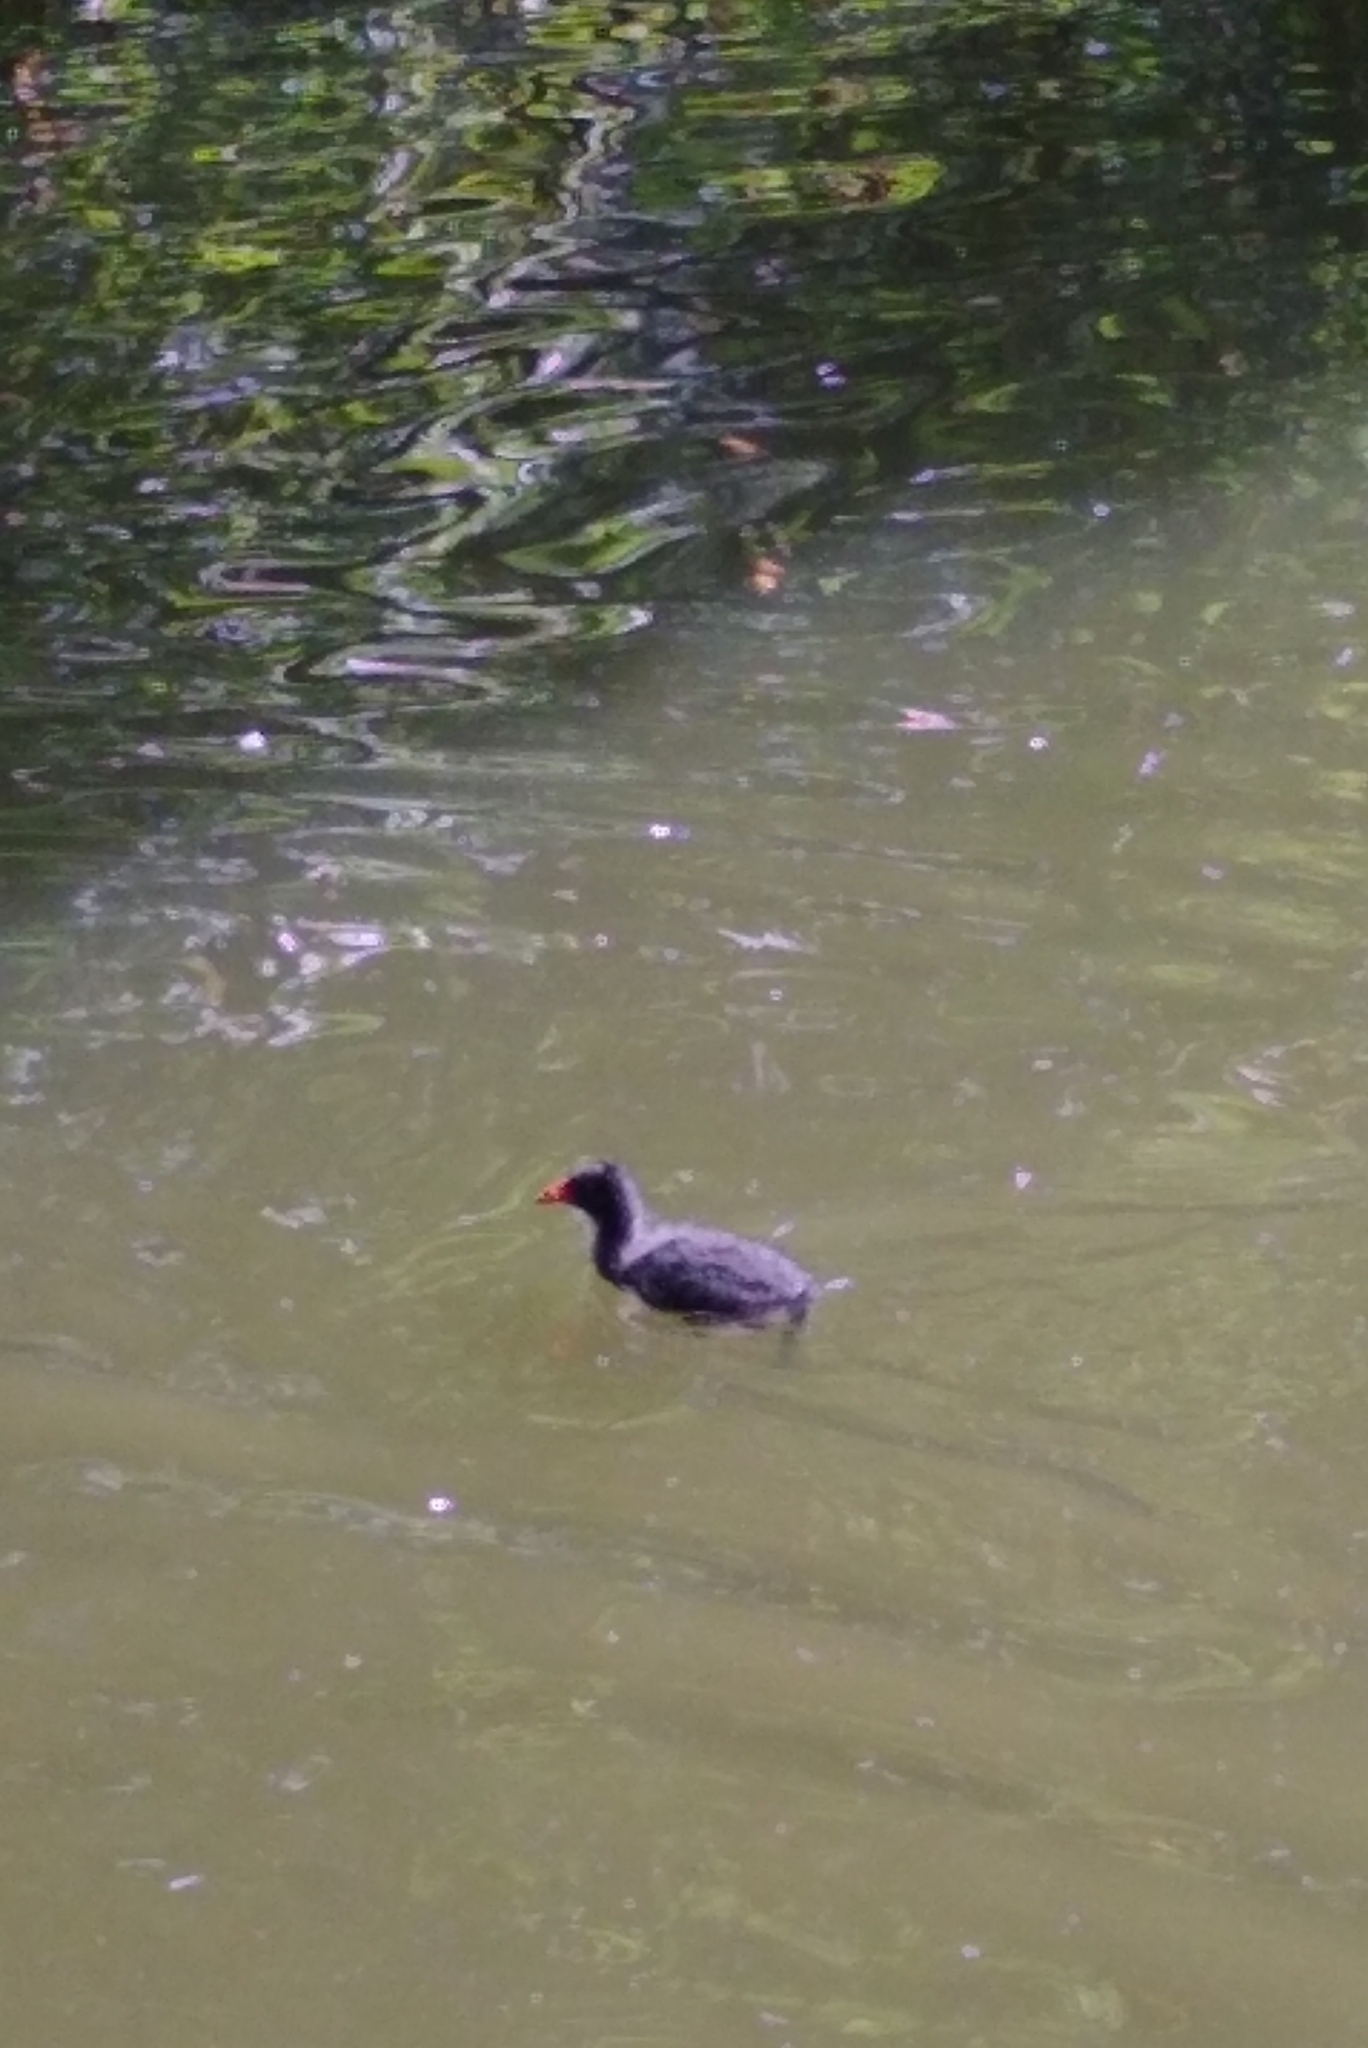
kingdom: Animalia
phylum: Chordata
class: Aves
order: Gruiformes
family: Rallidae
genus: Gallinula
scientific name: Gallinula chloropus
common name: Common moorhen
